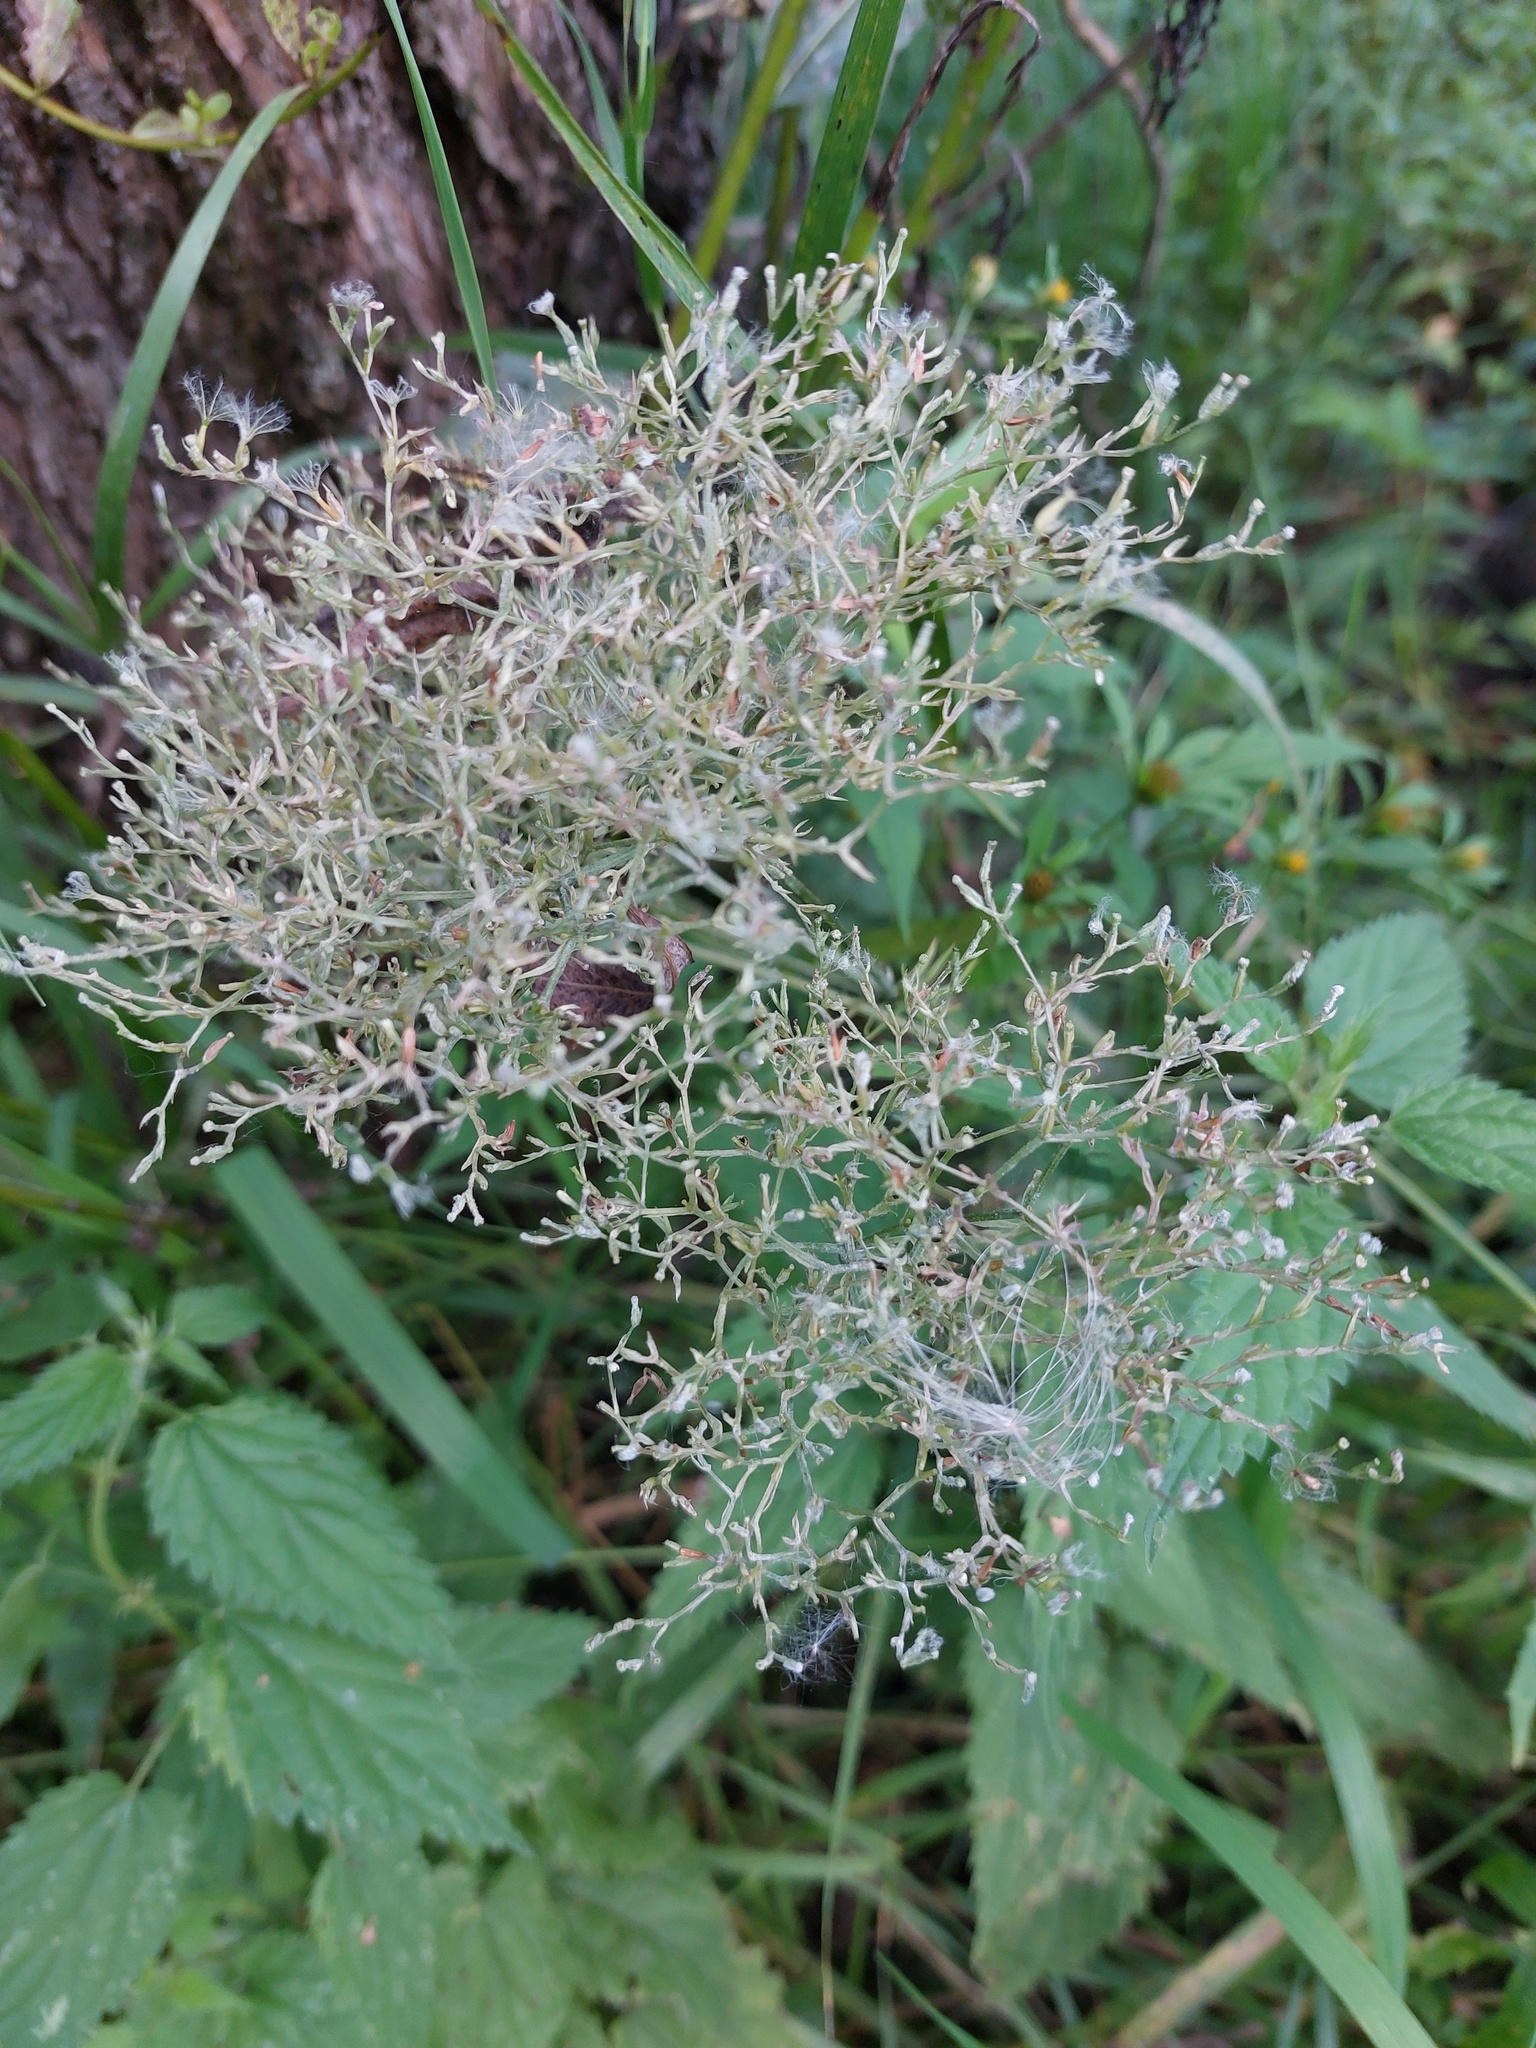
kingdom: Plantae
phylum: Tracheophyta
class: Magnoliopsida
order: Dipsacales
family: Caprifoliaceae
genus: Valeriana
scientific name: Valeriana officinalis
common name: Common valerian
